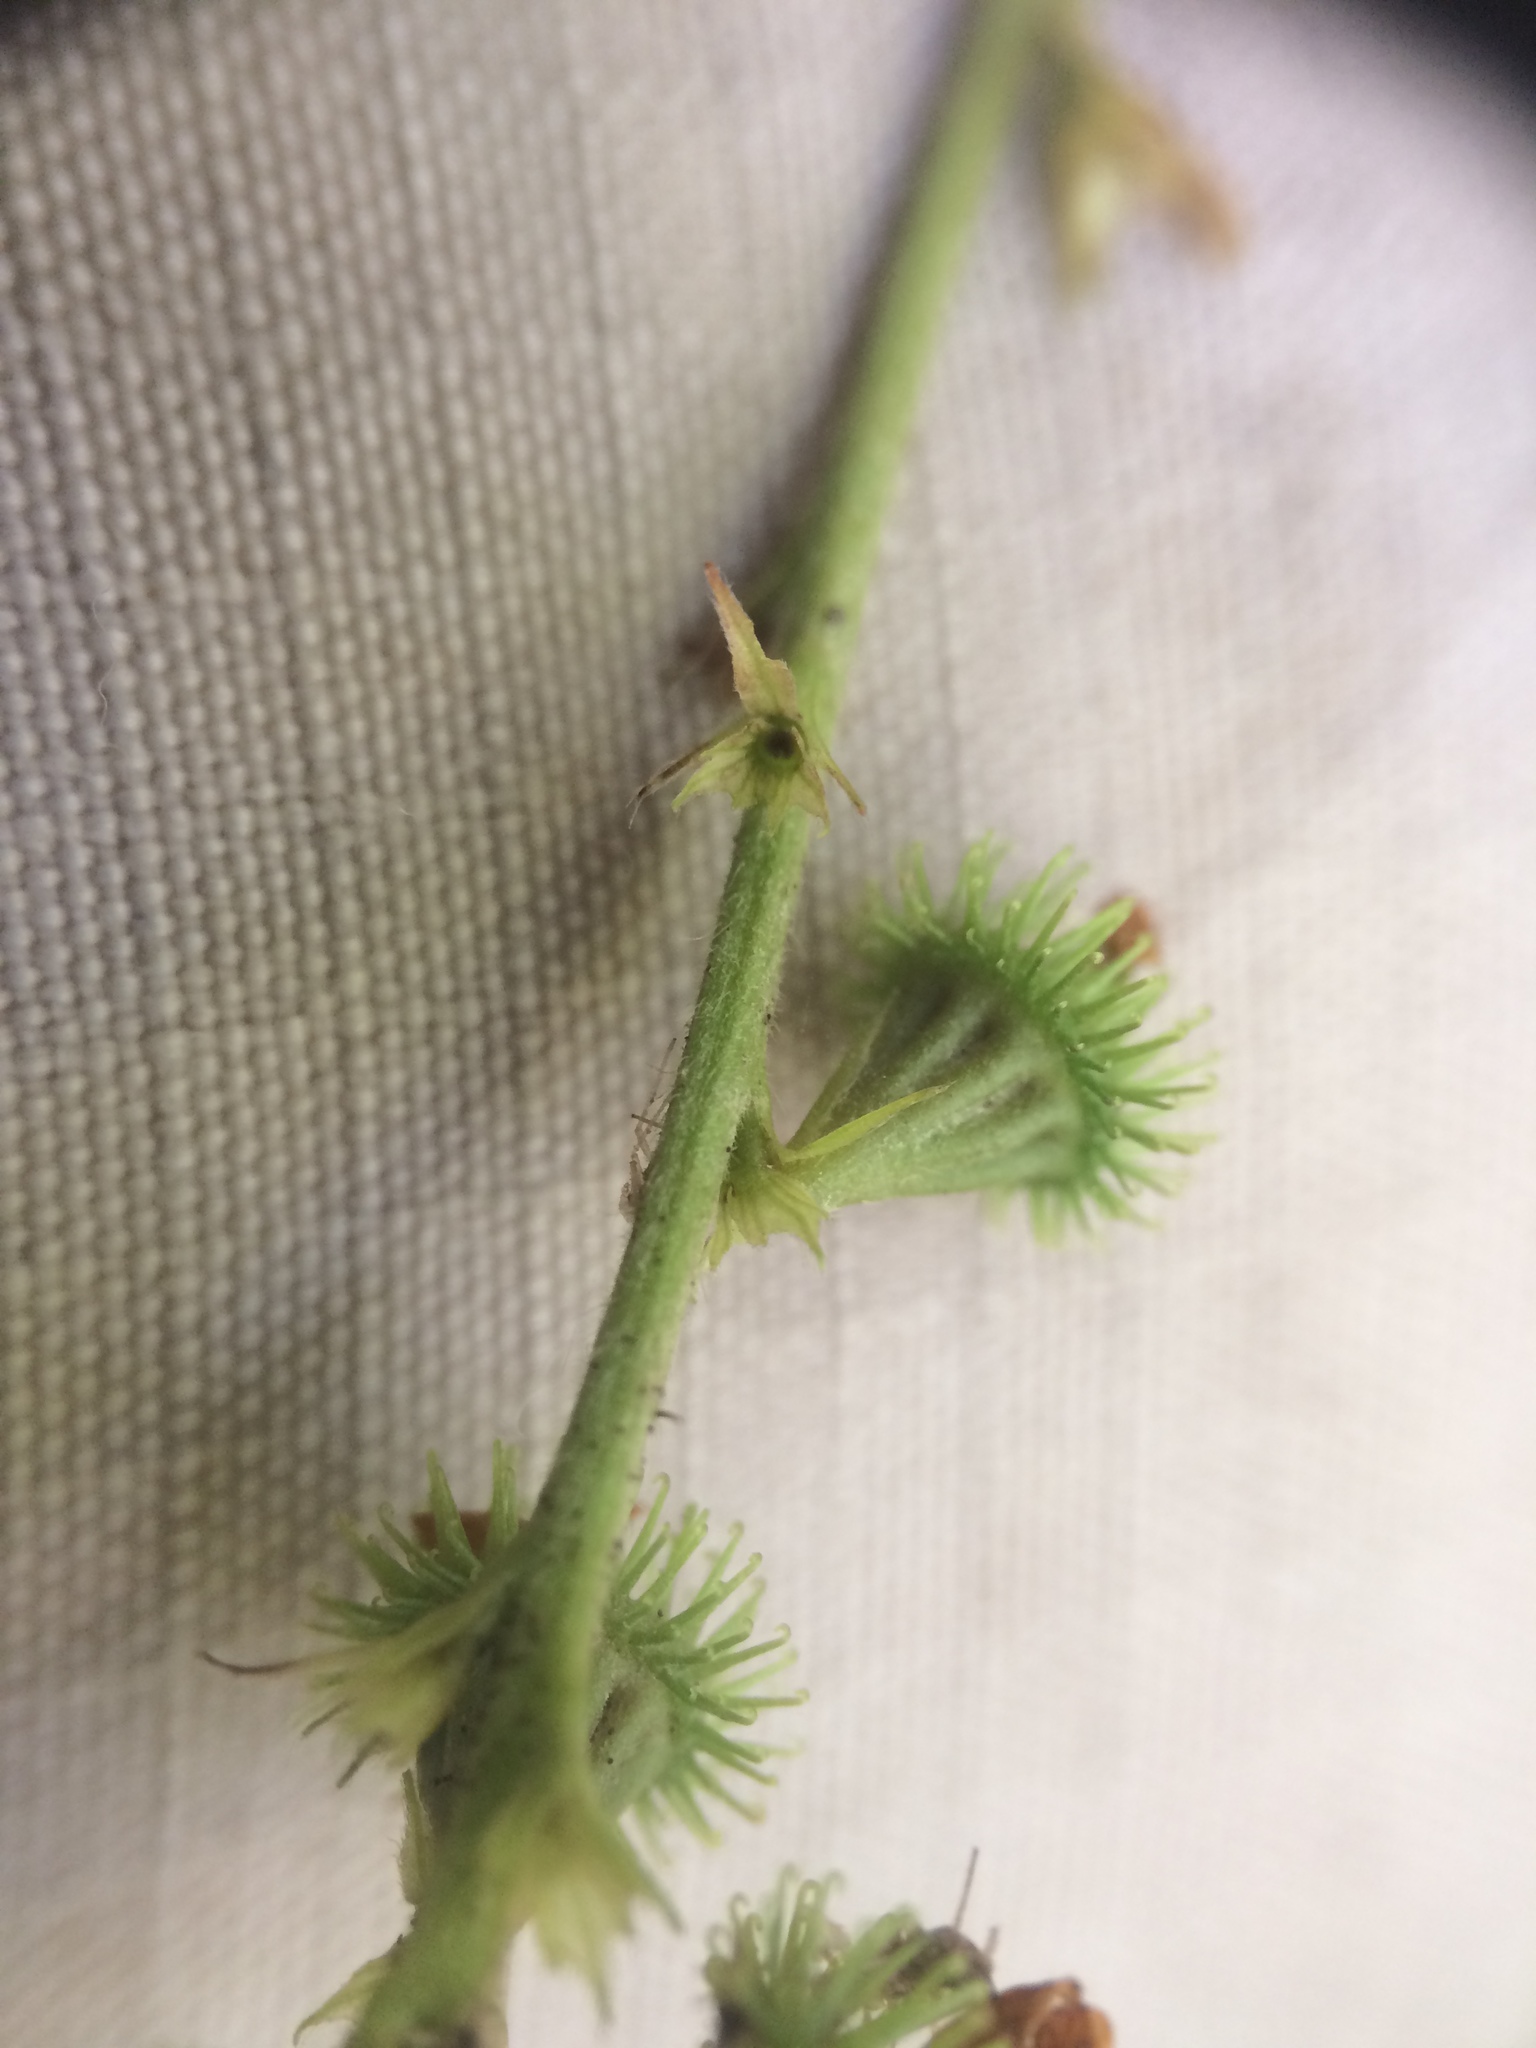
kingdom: Plantae
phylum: Tracheophyta
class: Magnoliopsida
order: Rosales
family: Rosaceae
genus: Agrimonia
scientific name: Agrimonia striata
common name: Britton's agrimony
